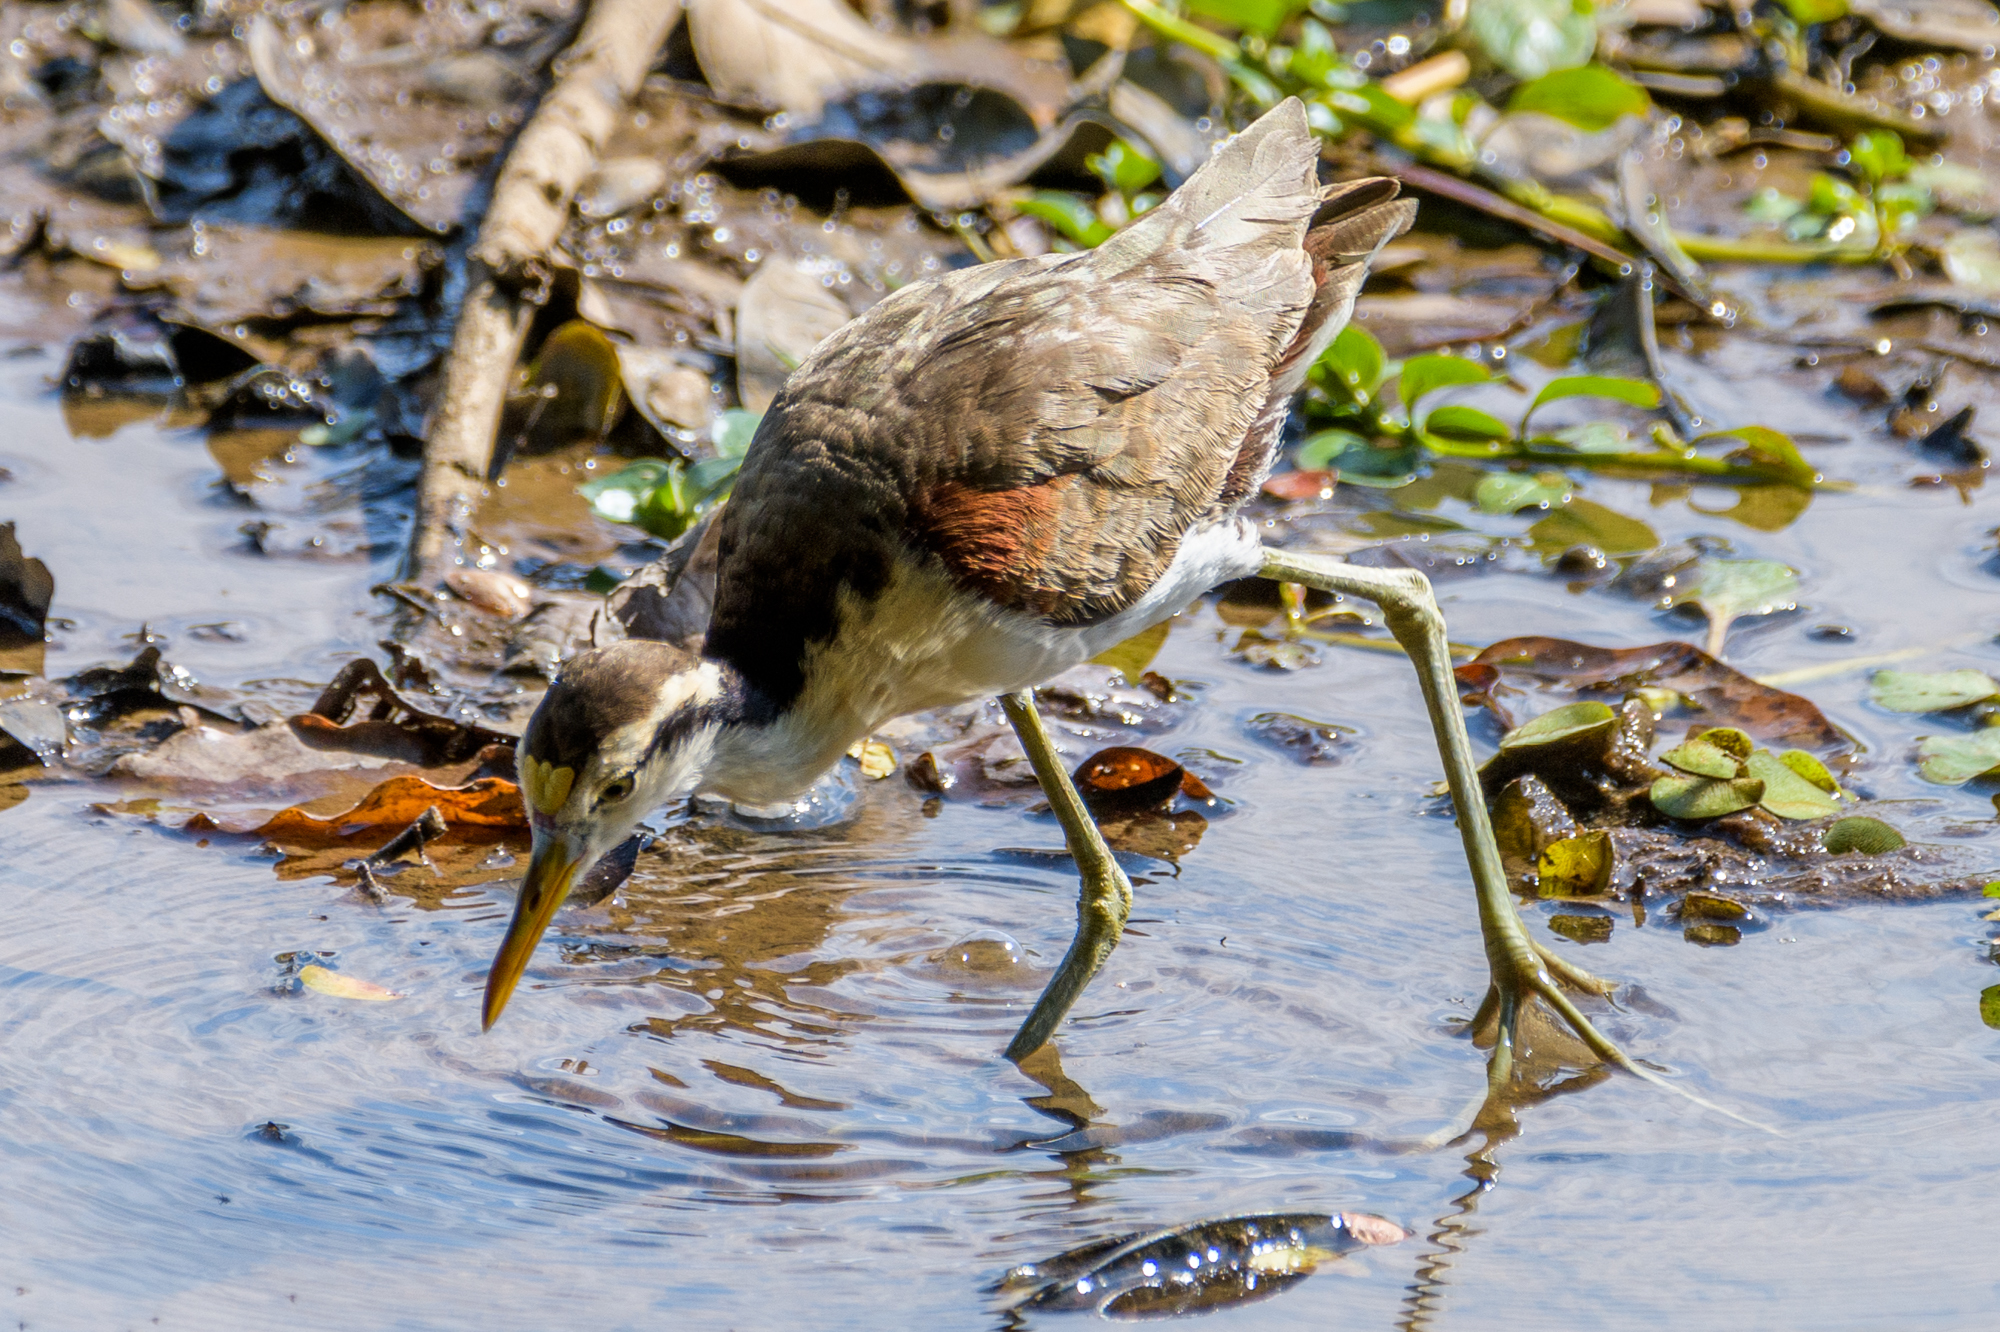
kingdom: Animalia
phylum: Chordata
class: Aves
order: Charadriiformes
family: Jacanidae
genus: Jacana
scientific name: Jacana spinosa
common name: Northern jacana
